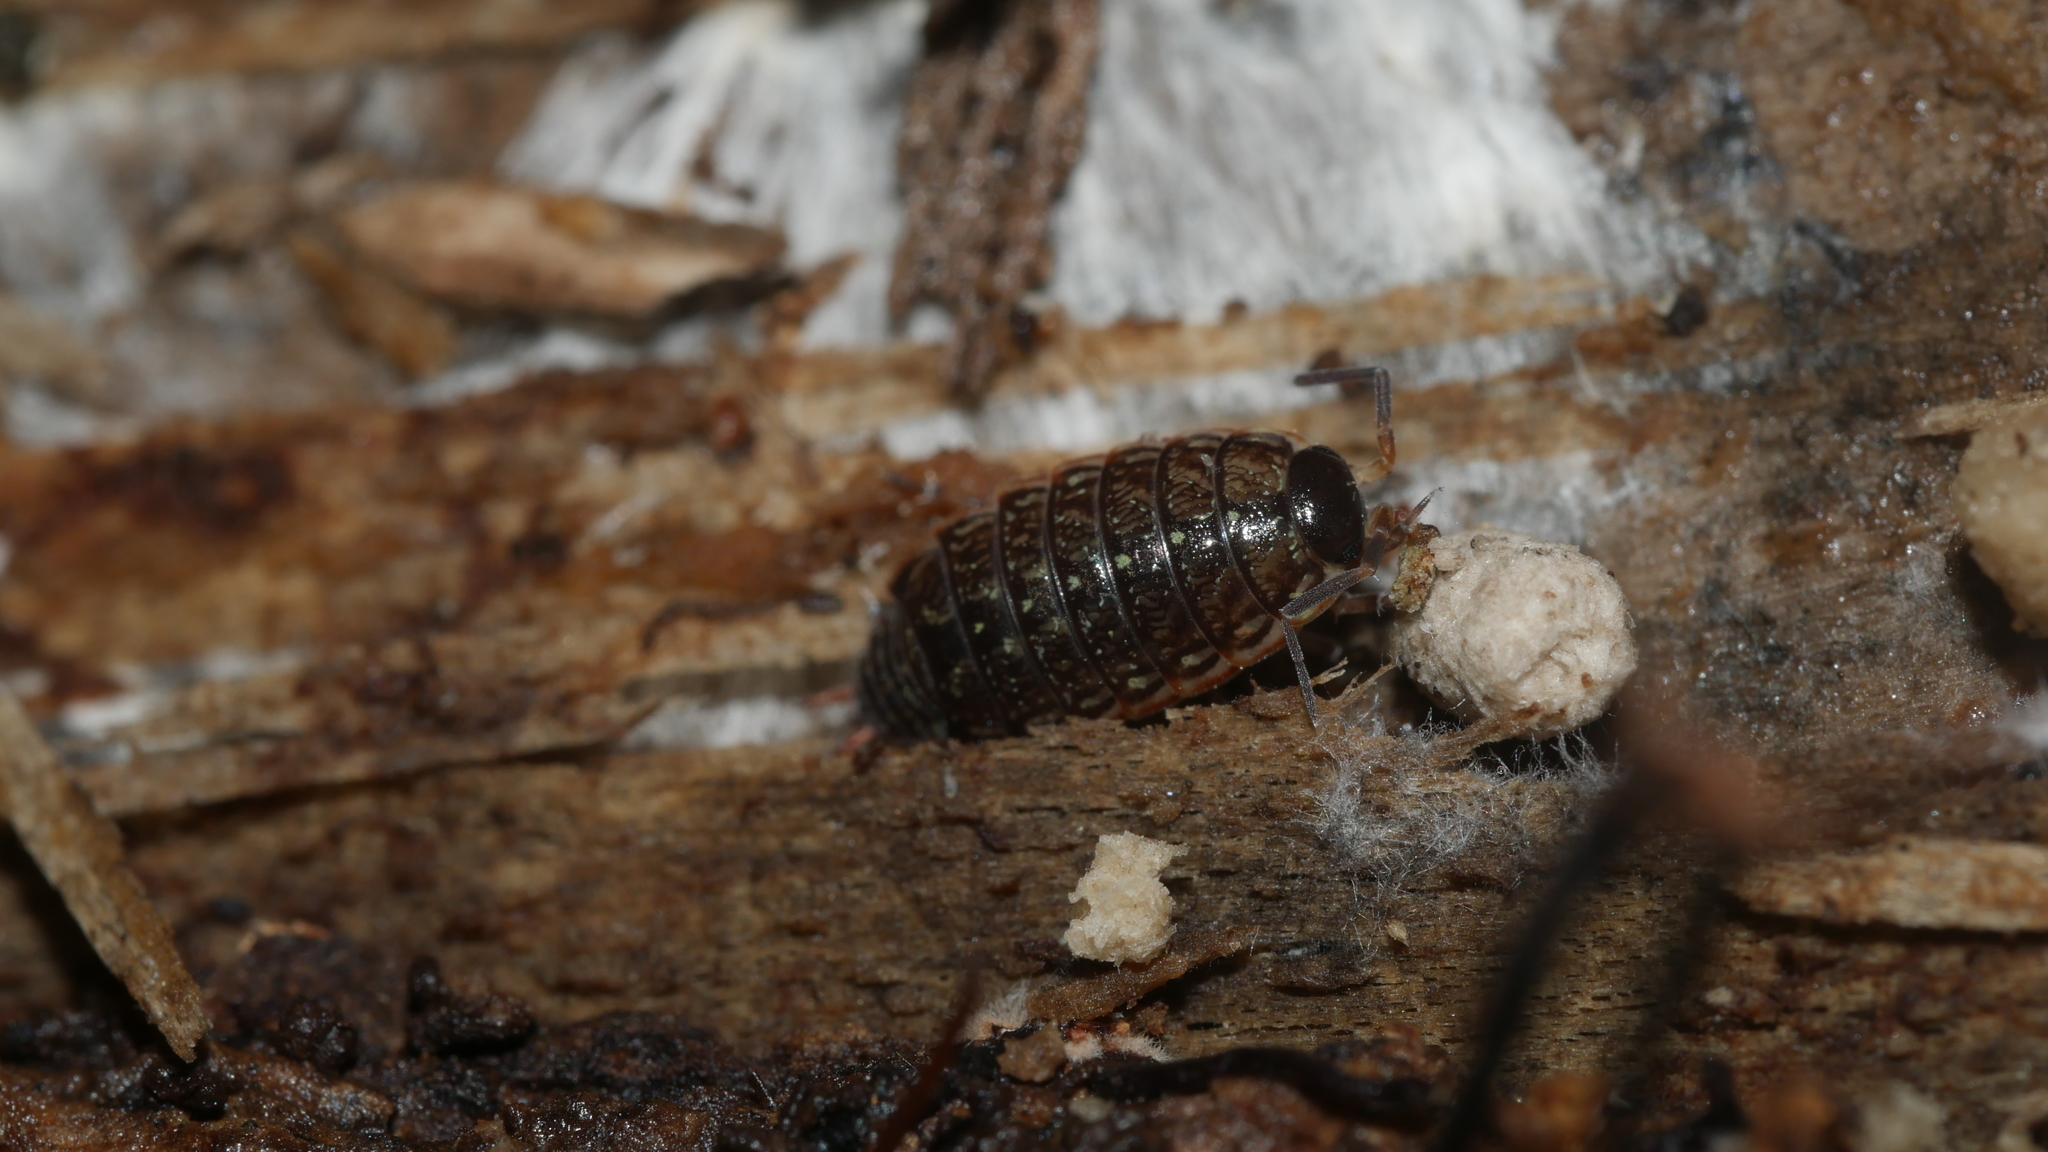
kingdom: Animalia
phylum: Arthropoda
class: Malacostraca
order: Isopoda
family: Philosciidae
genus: Philoscia
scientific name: Philoscia muscorum
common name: Common striped woodlouse
